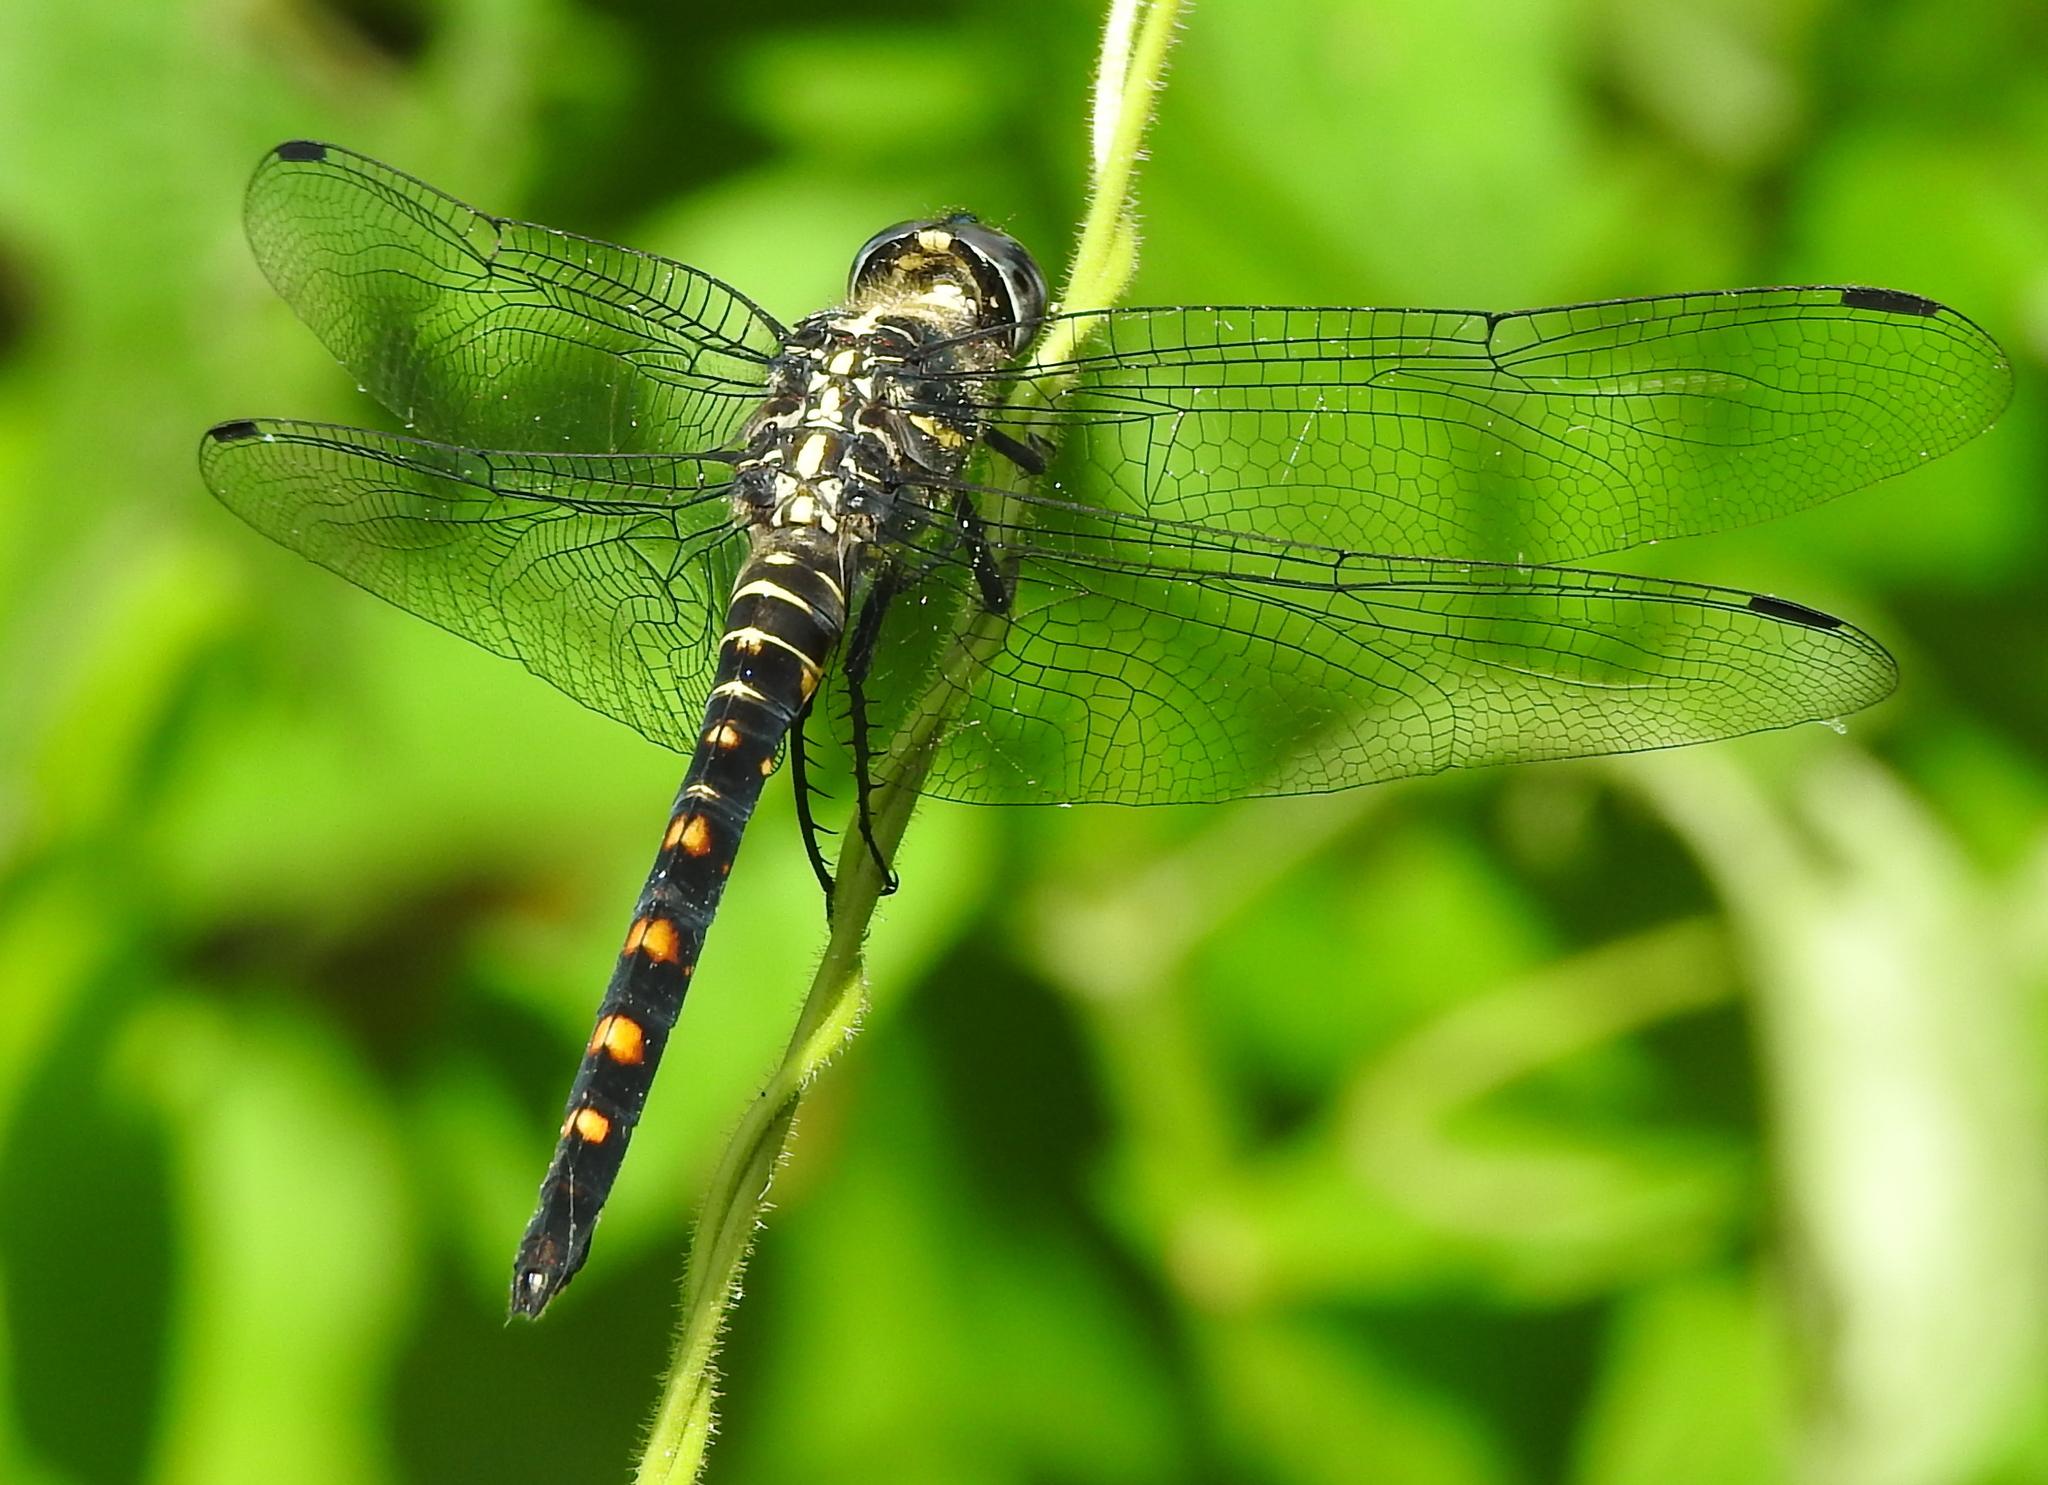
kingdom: Animalia
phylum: Arthropoda
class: Insecta
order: Odonata
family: Libellulidae
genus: Onychothemis
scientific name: Onychothemis testacea
